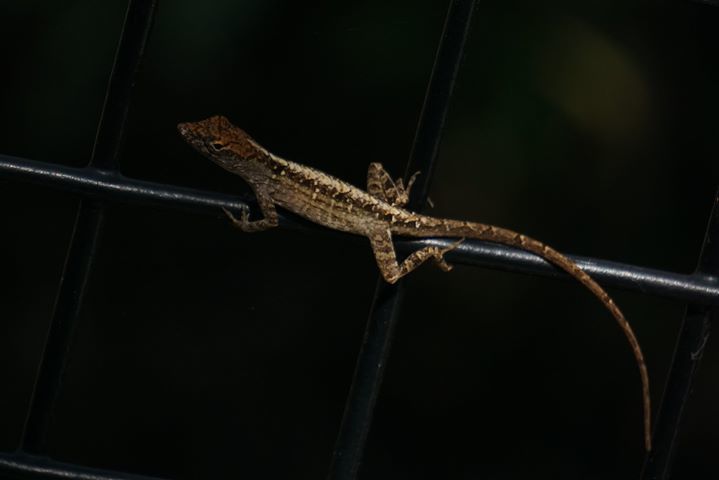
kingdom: Animalia
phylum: Chordata
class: Squamata
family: Dactyloidae
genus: Anolis
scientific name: Anolis sagrei
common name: Brown anole
